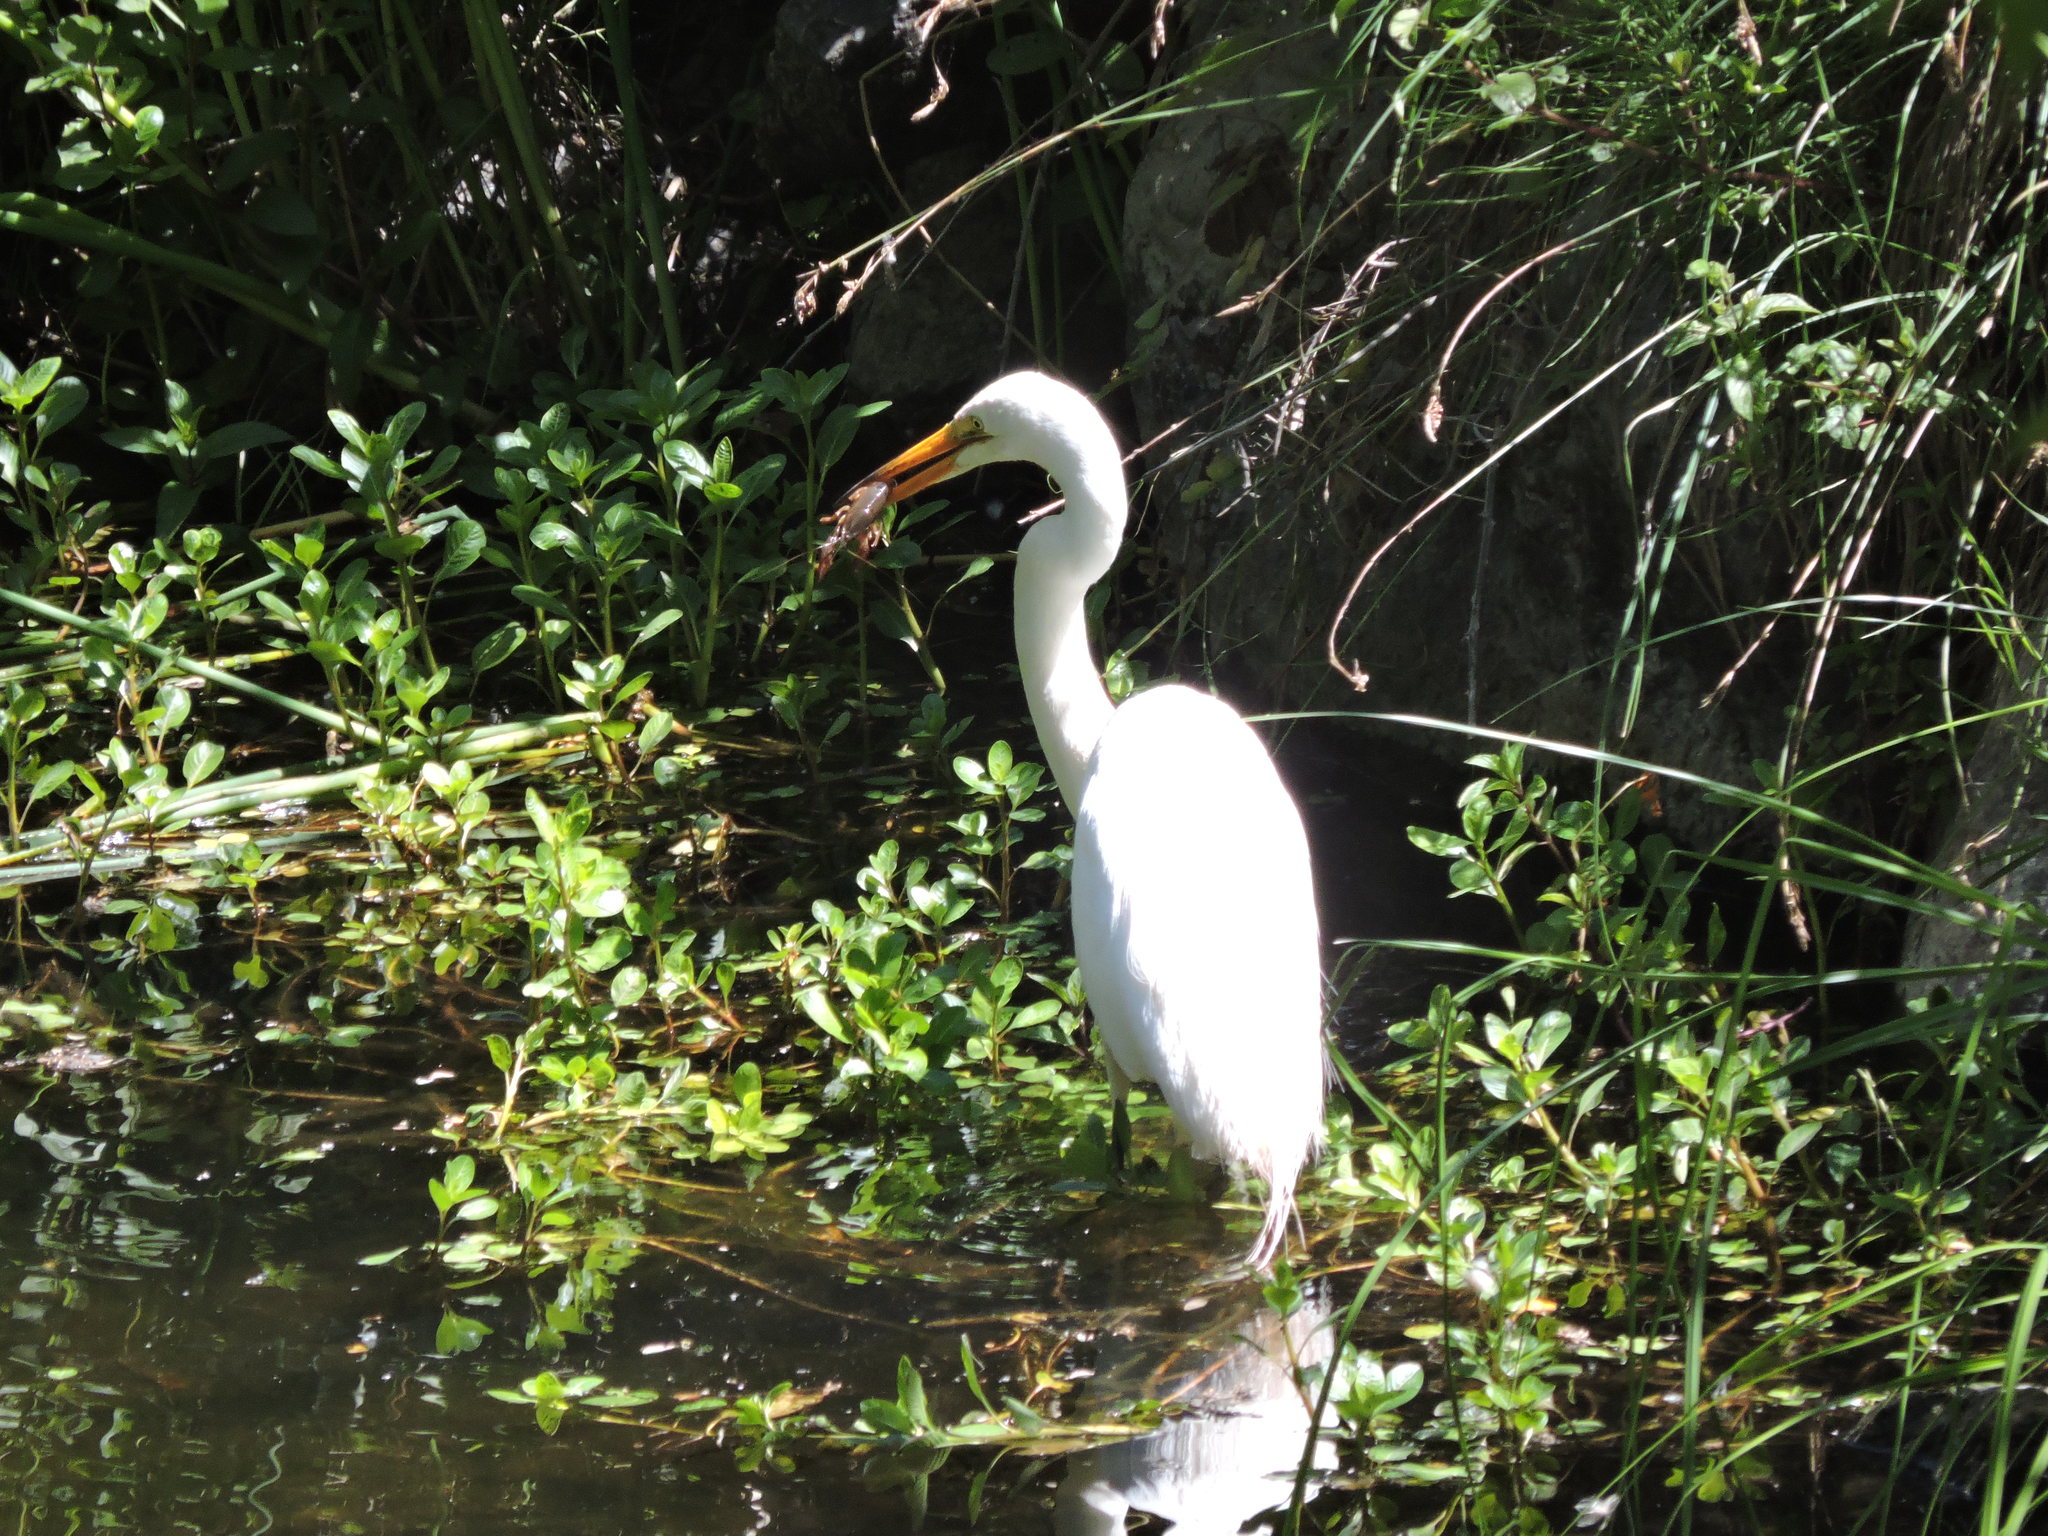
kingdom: Animalia
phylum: Chordata
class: Aves
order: Pelecaniformes
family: Ardeidae
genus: Ardea
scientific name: Ardea alba
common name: Great egret
